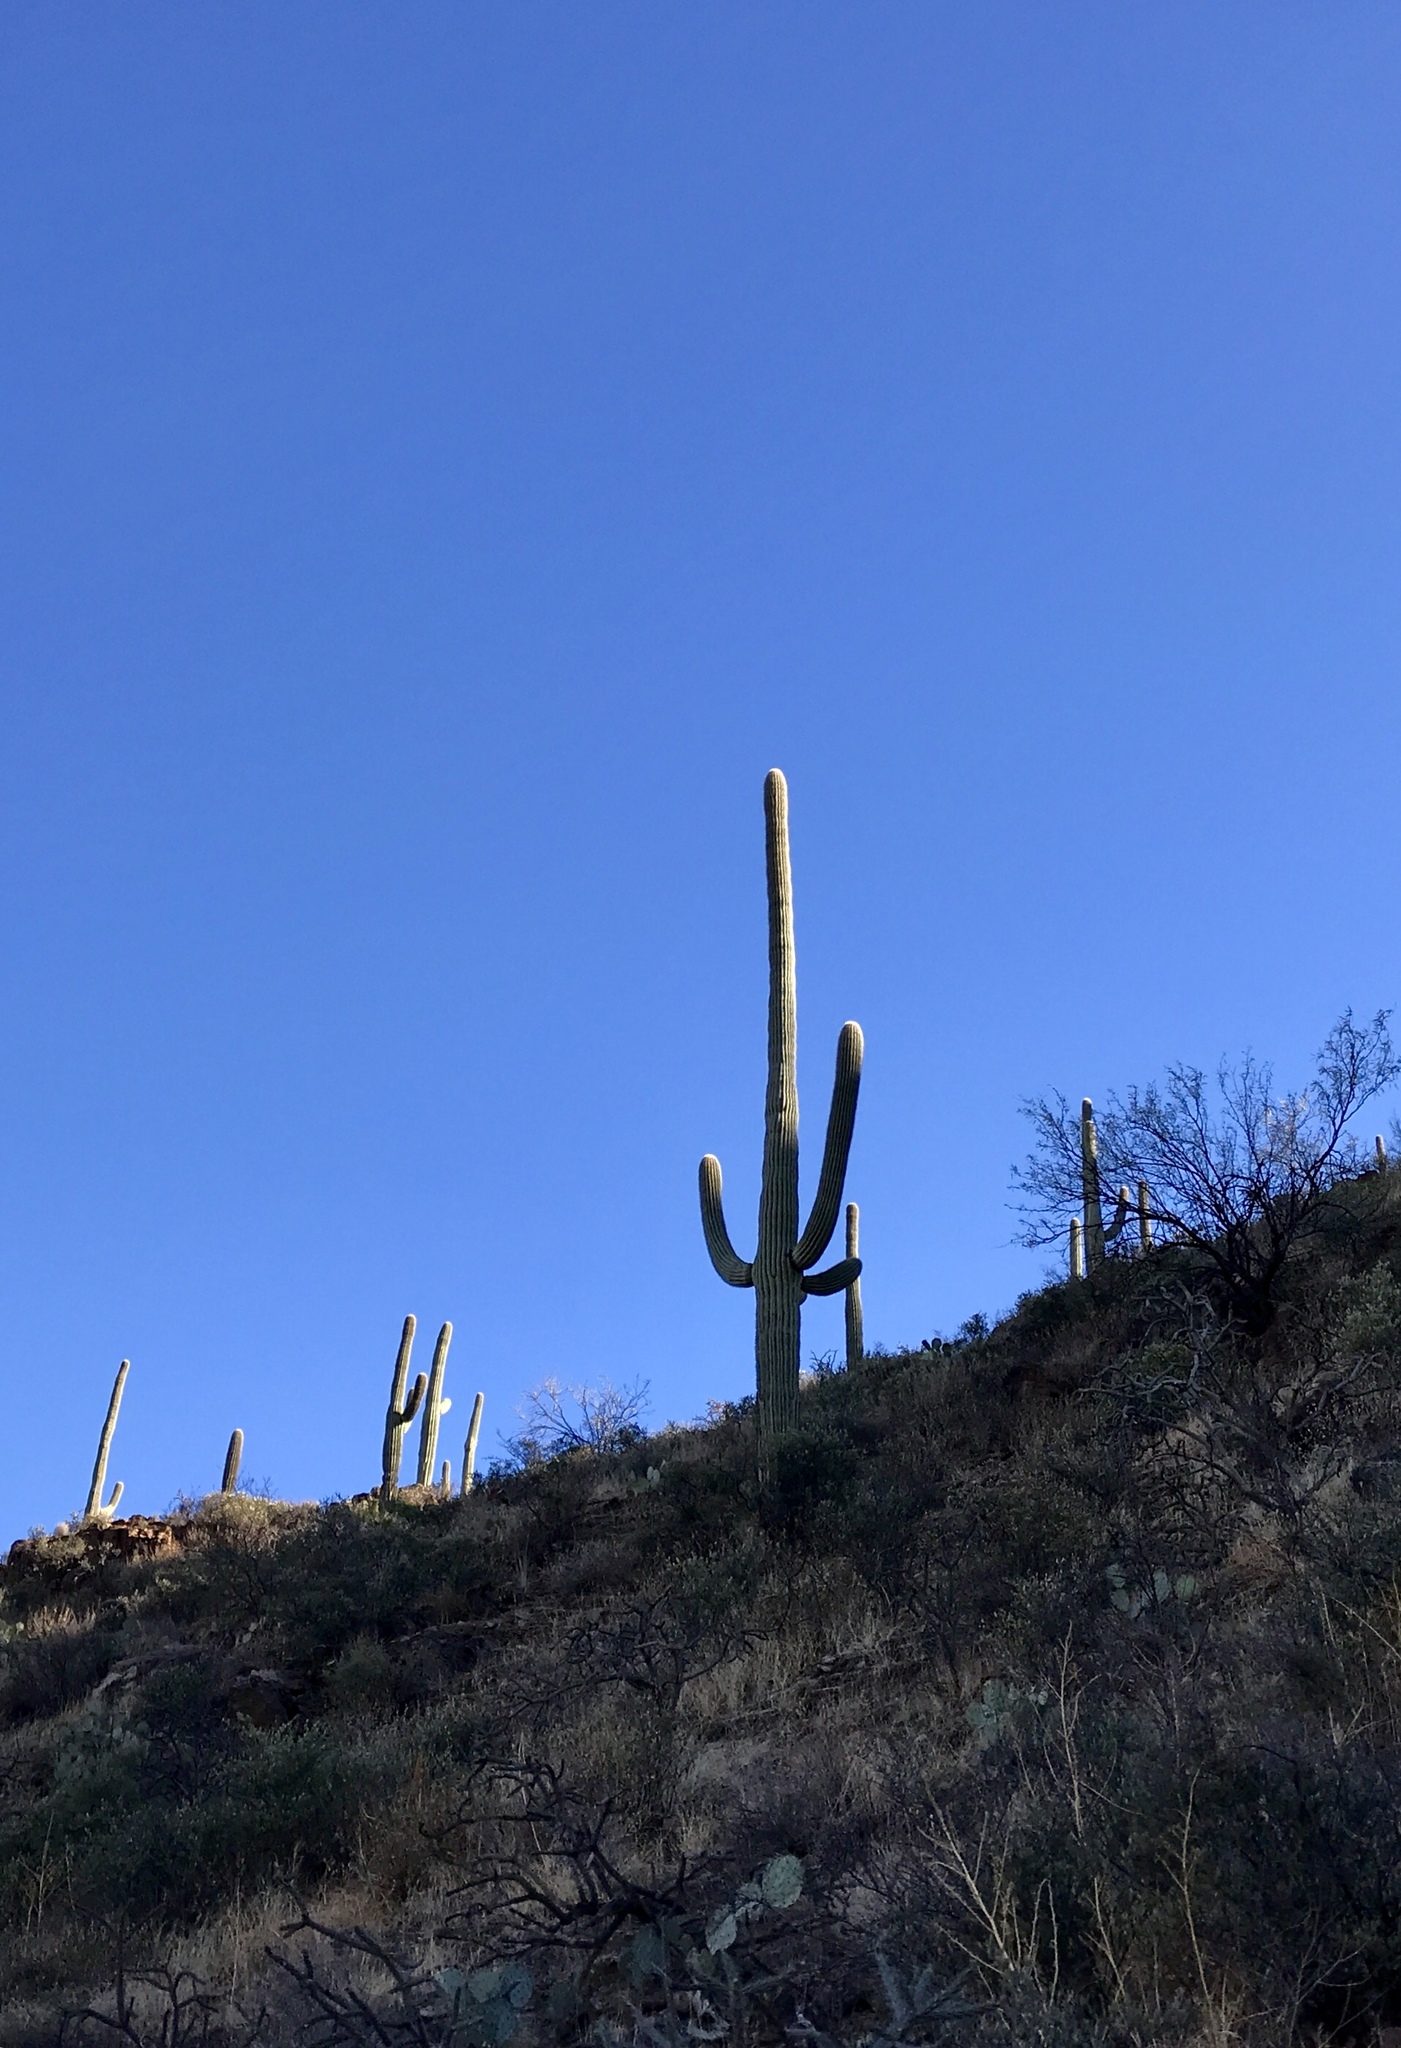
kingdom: Plantae
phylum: Tracheophyta
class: Magnoliopsida
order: Caryophyllales
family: Cactaceae
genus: Carnegiea
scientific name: Carnegiea gigantea
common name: Saguaro
